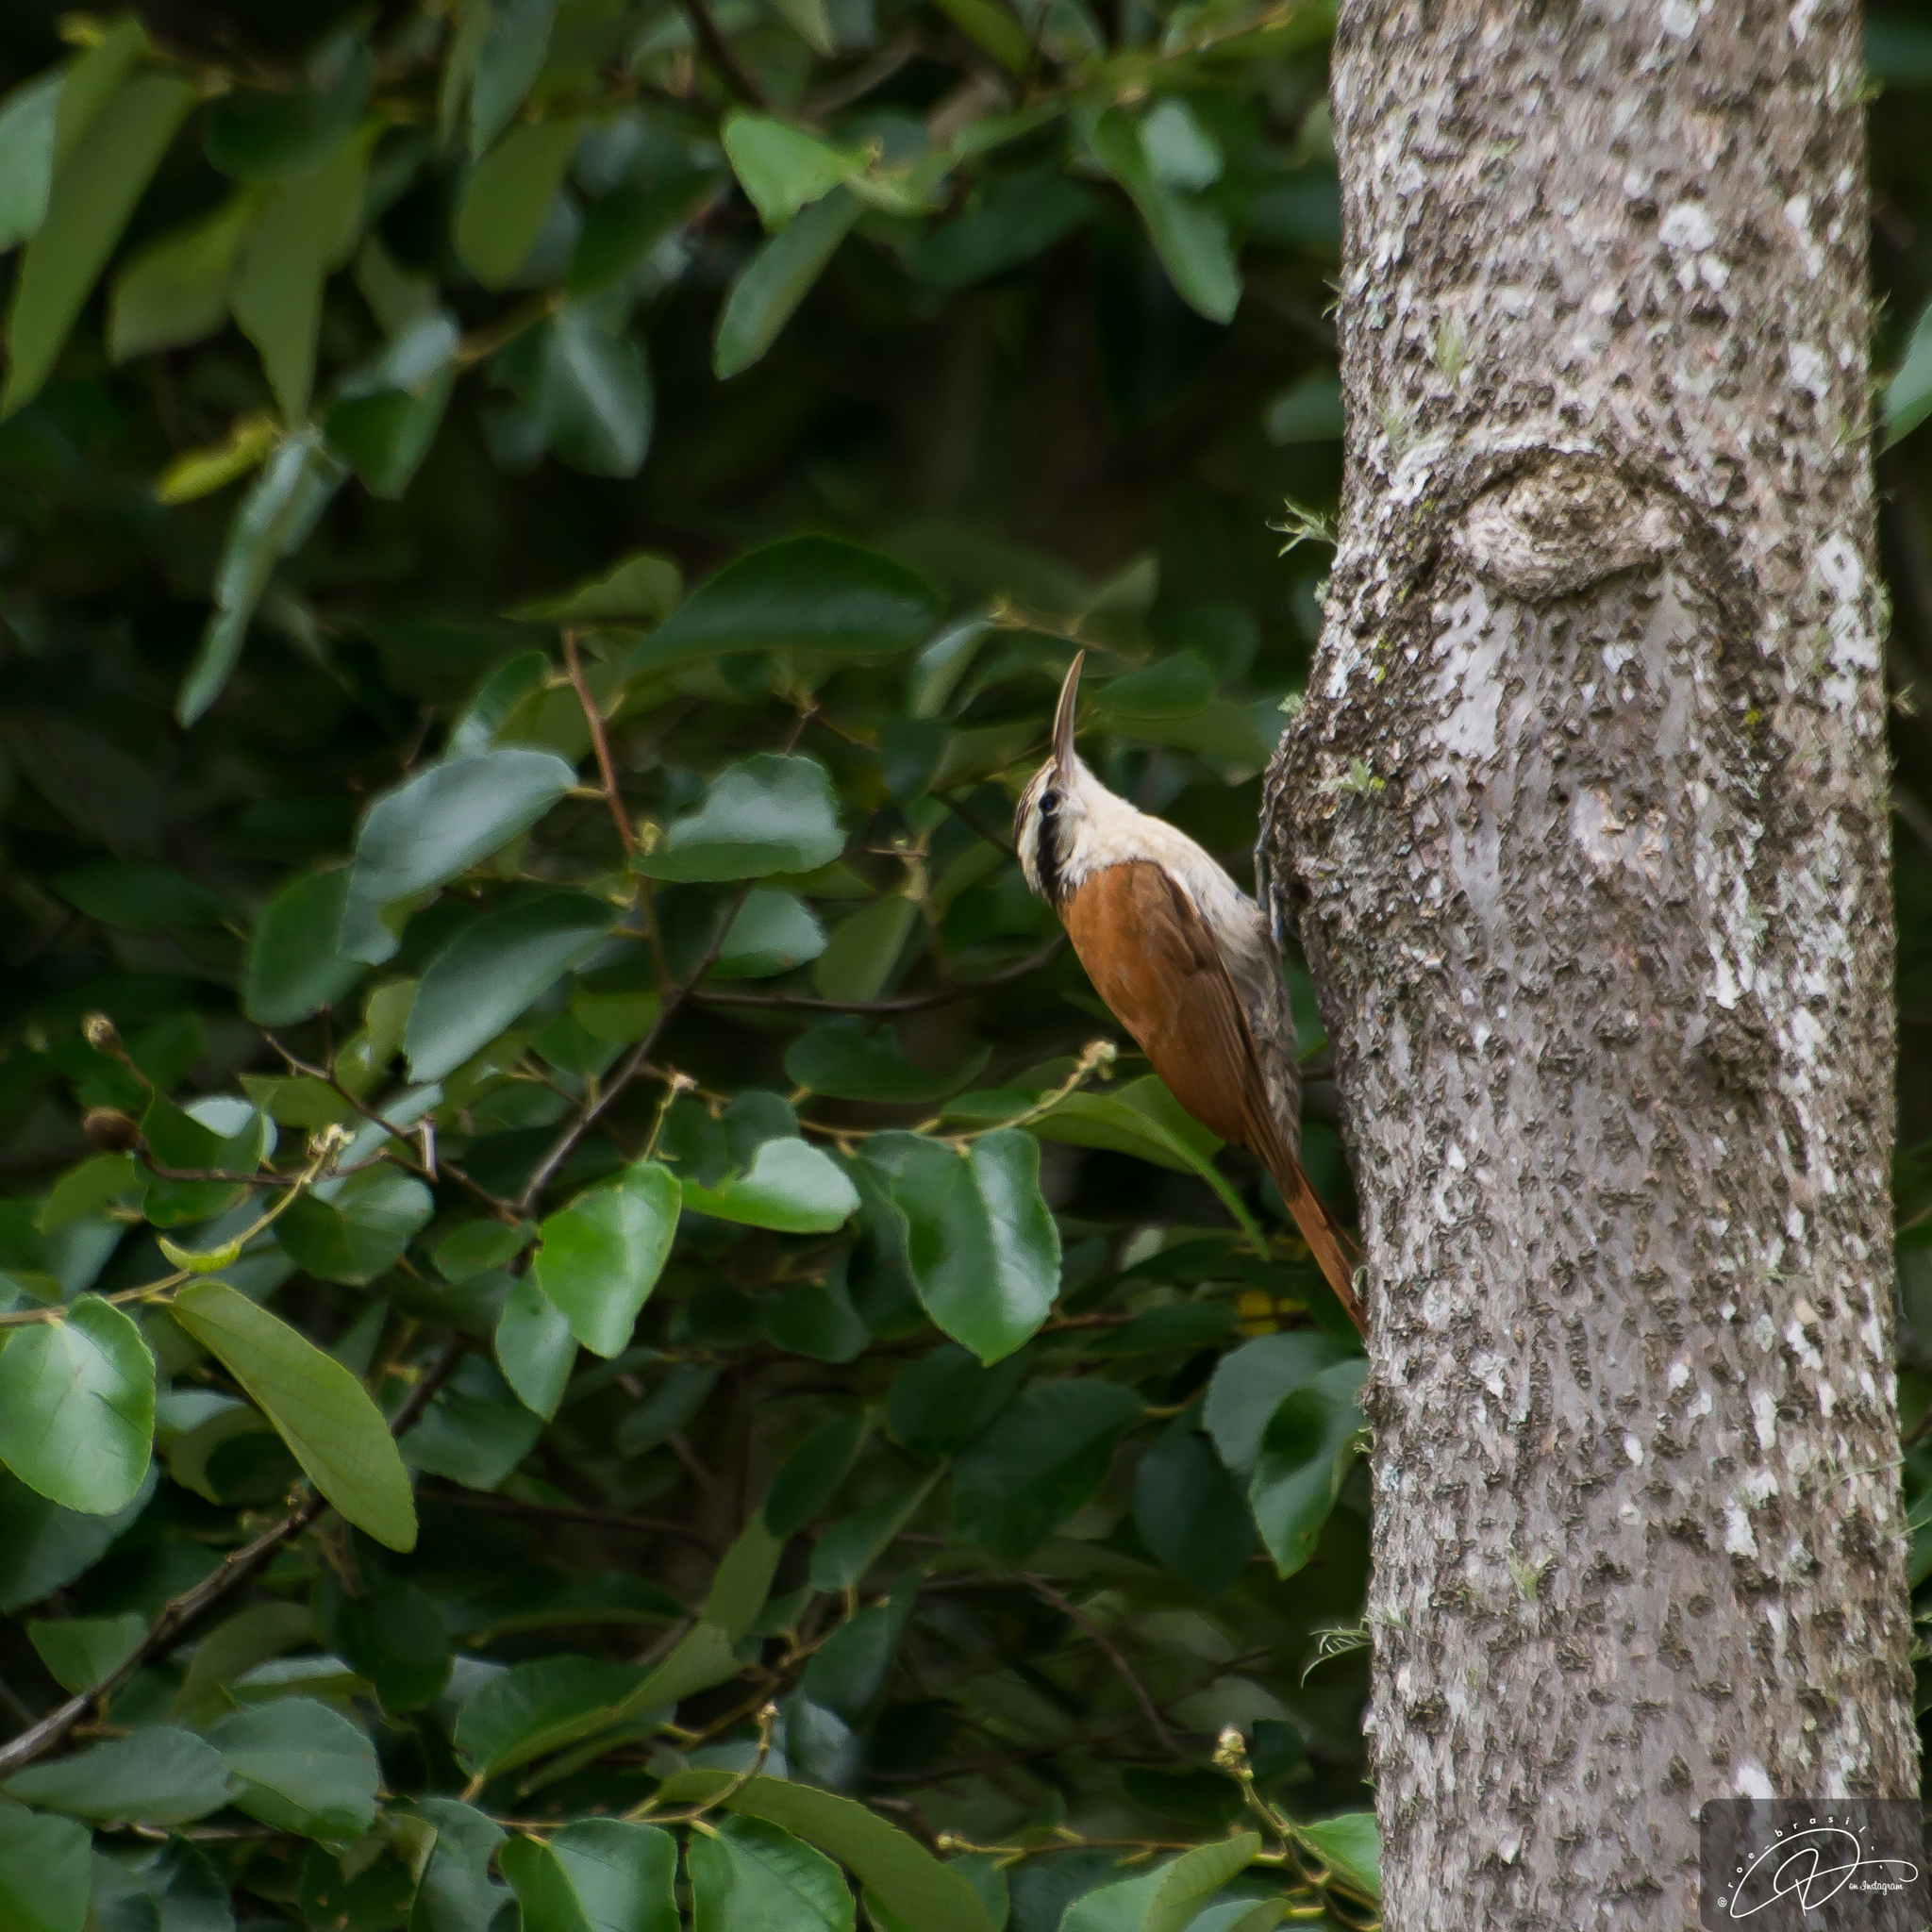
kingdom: Animalia
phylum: Chordata
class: Aves
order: Passeriformes
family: Furnariidae
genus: Lepidocolaptes
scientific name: Lepidocolaptes angustirostris
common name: Narrow-billed woodcreeper
